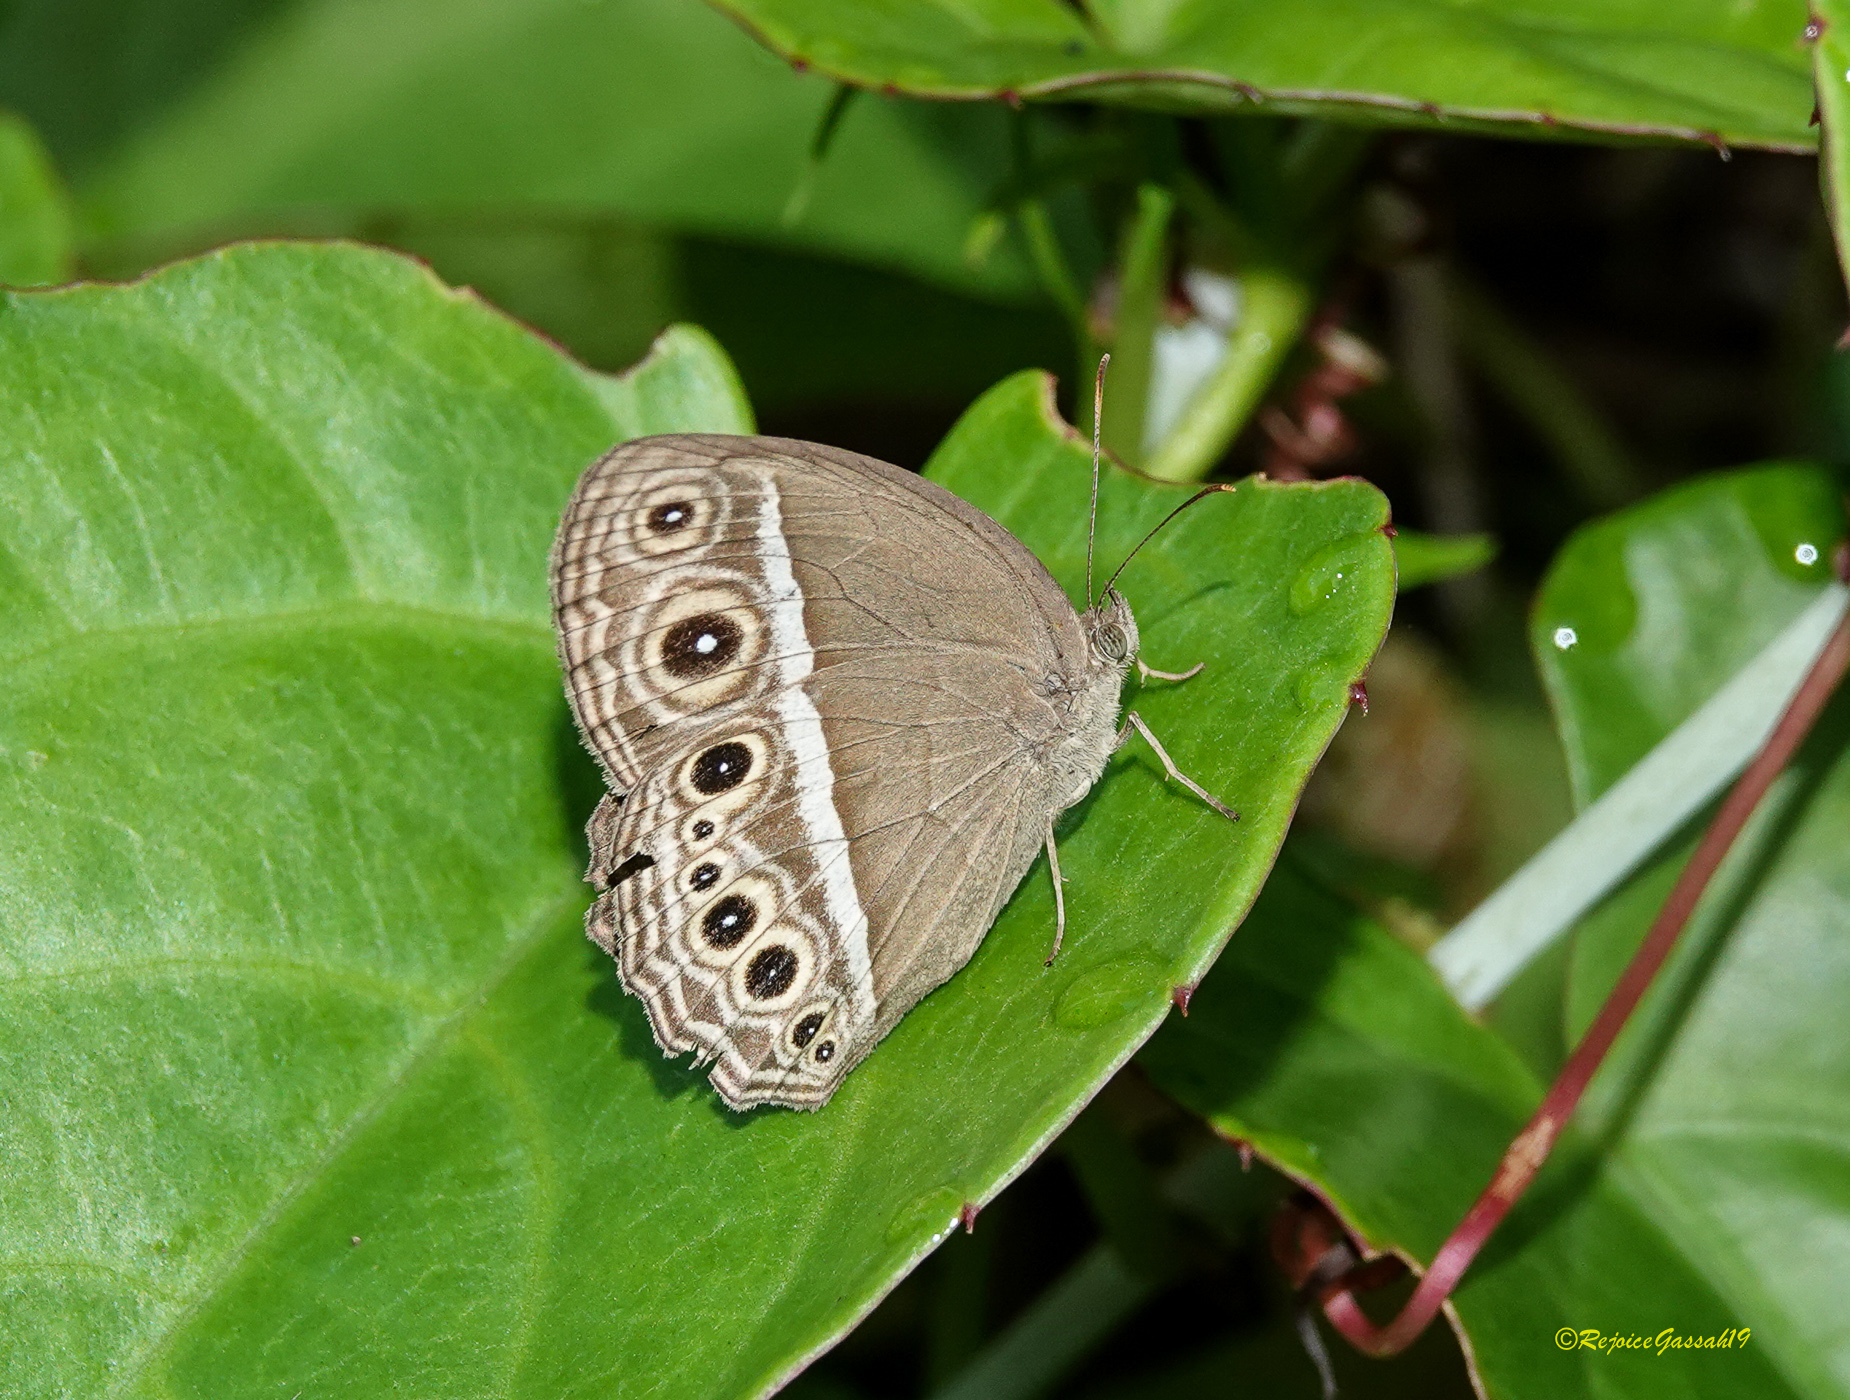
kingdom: Animalia
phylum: Arthropoda
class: Insecta
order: Lepidoptera
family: Nymphalidae
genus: Mycalesis
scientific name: Mycalesis mineus
